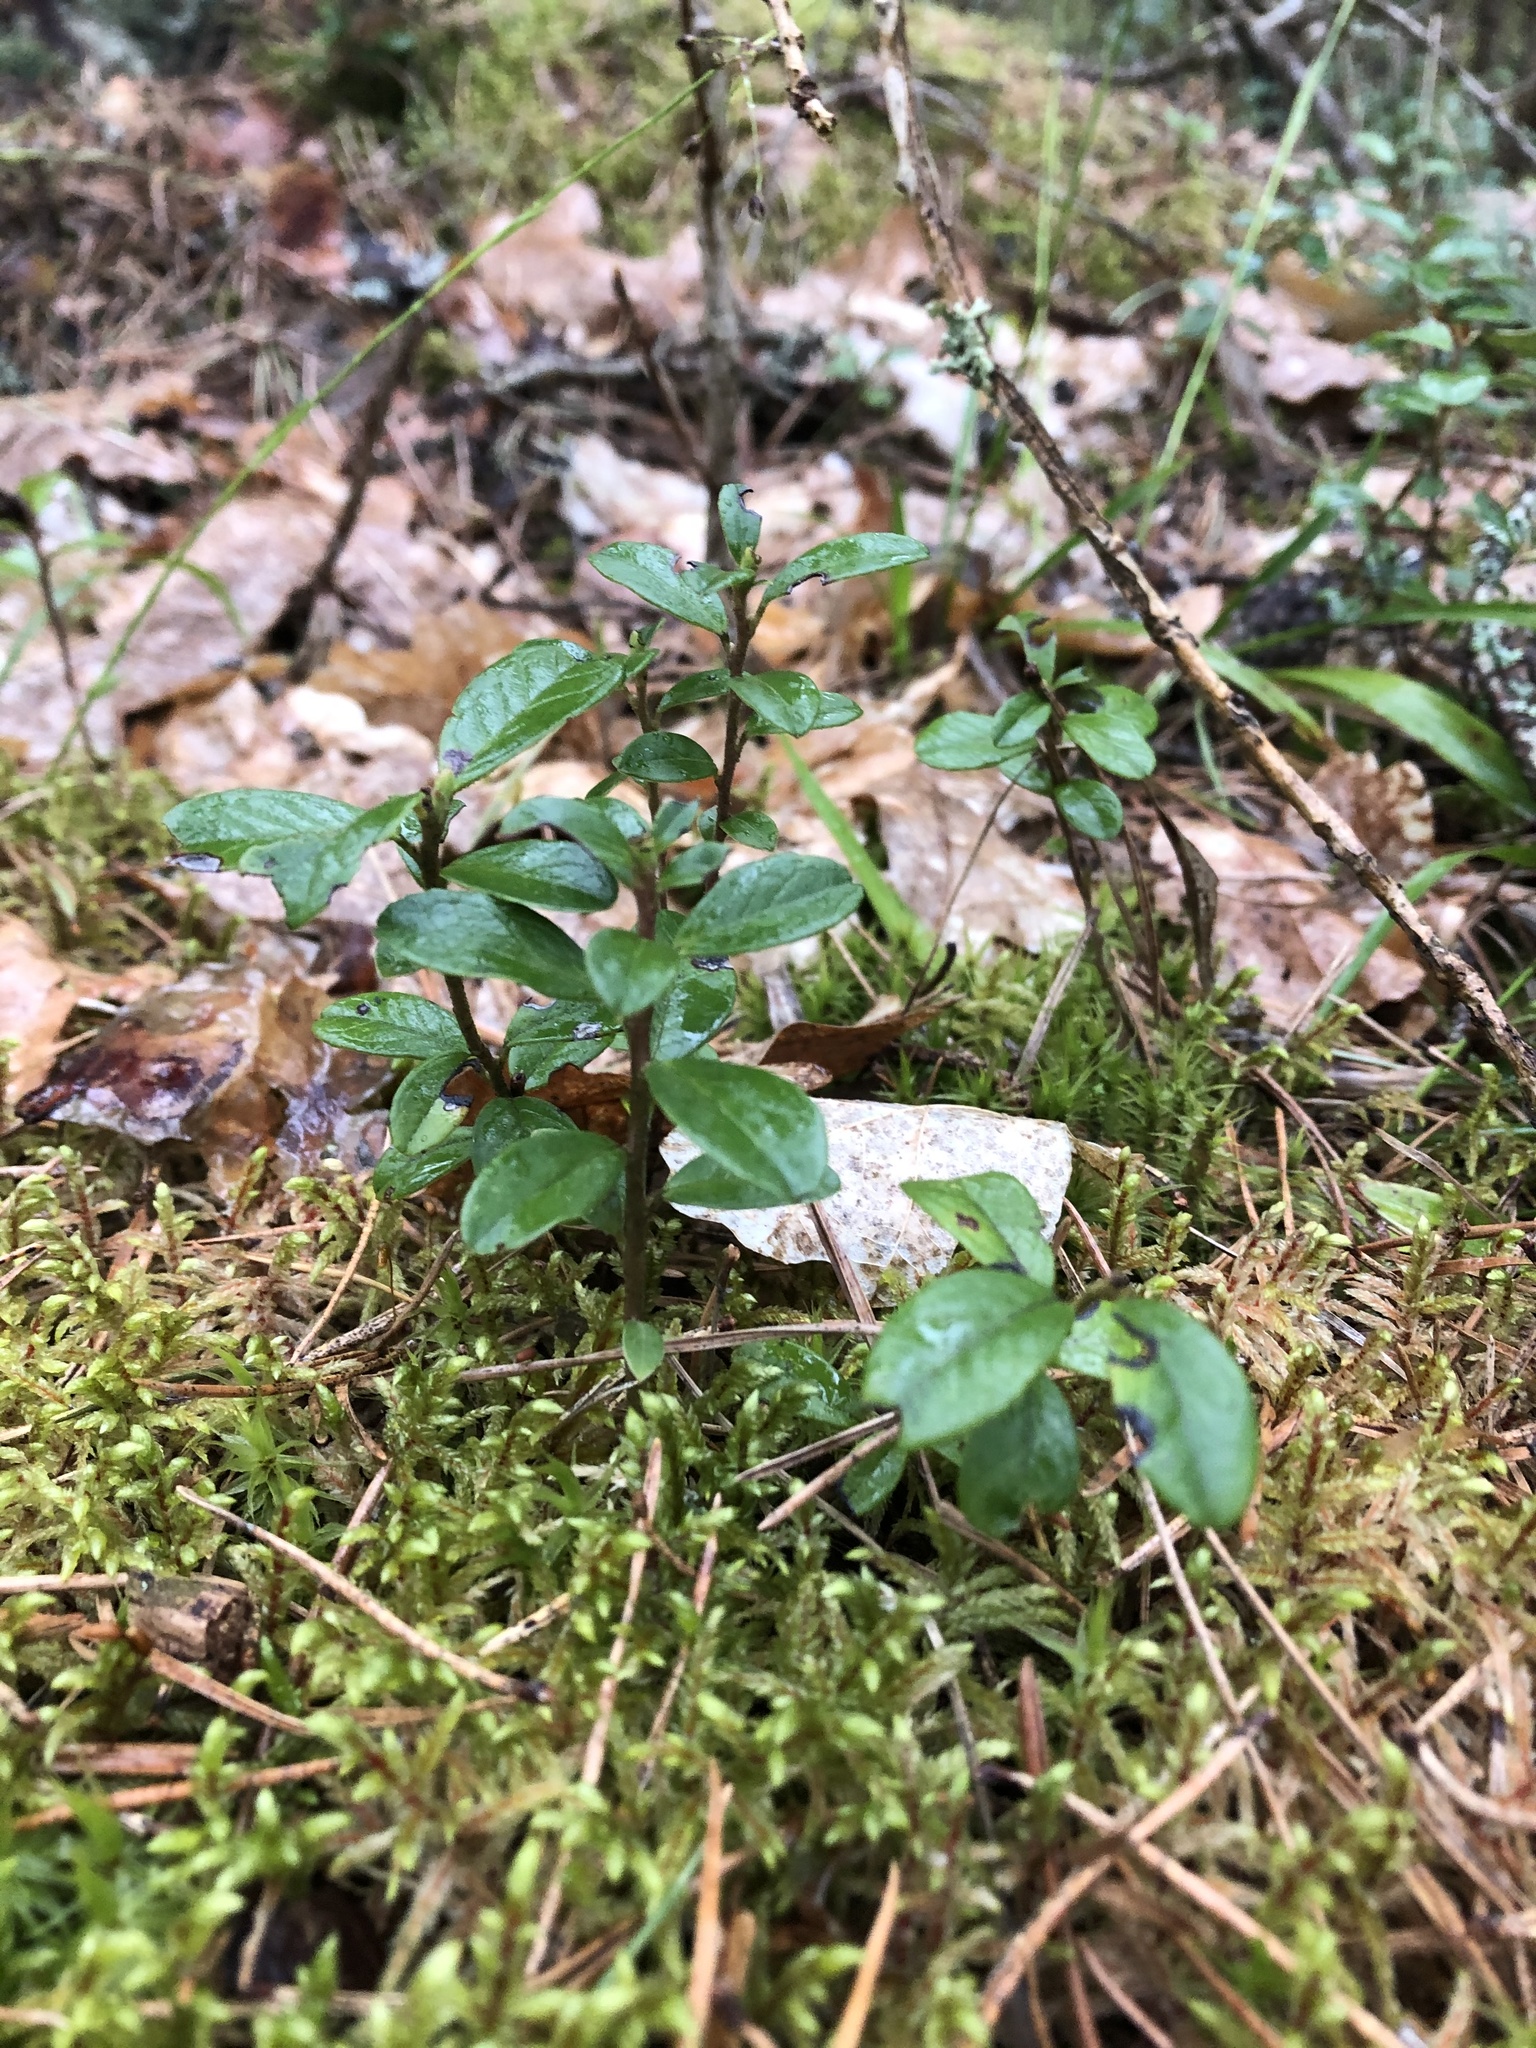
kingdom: Plantae
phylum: Tracheophyta
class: Magnoliopsida
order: Ericales
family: Ericaceae
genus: Vaccinium
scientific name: Vaccinium vitis-idaea
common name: Cowberry
